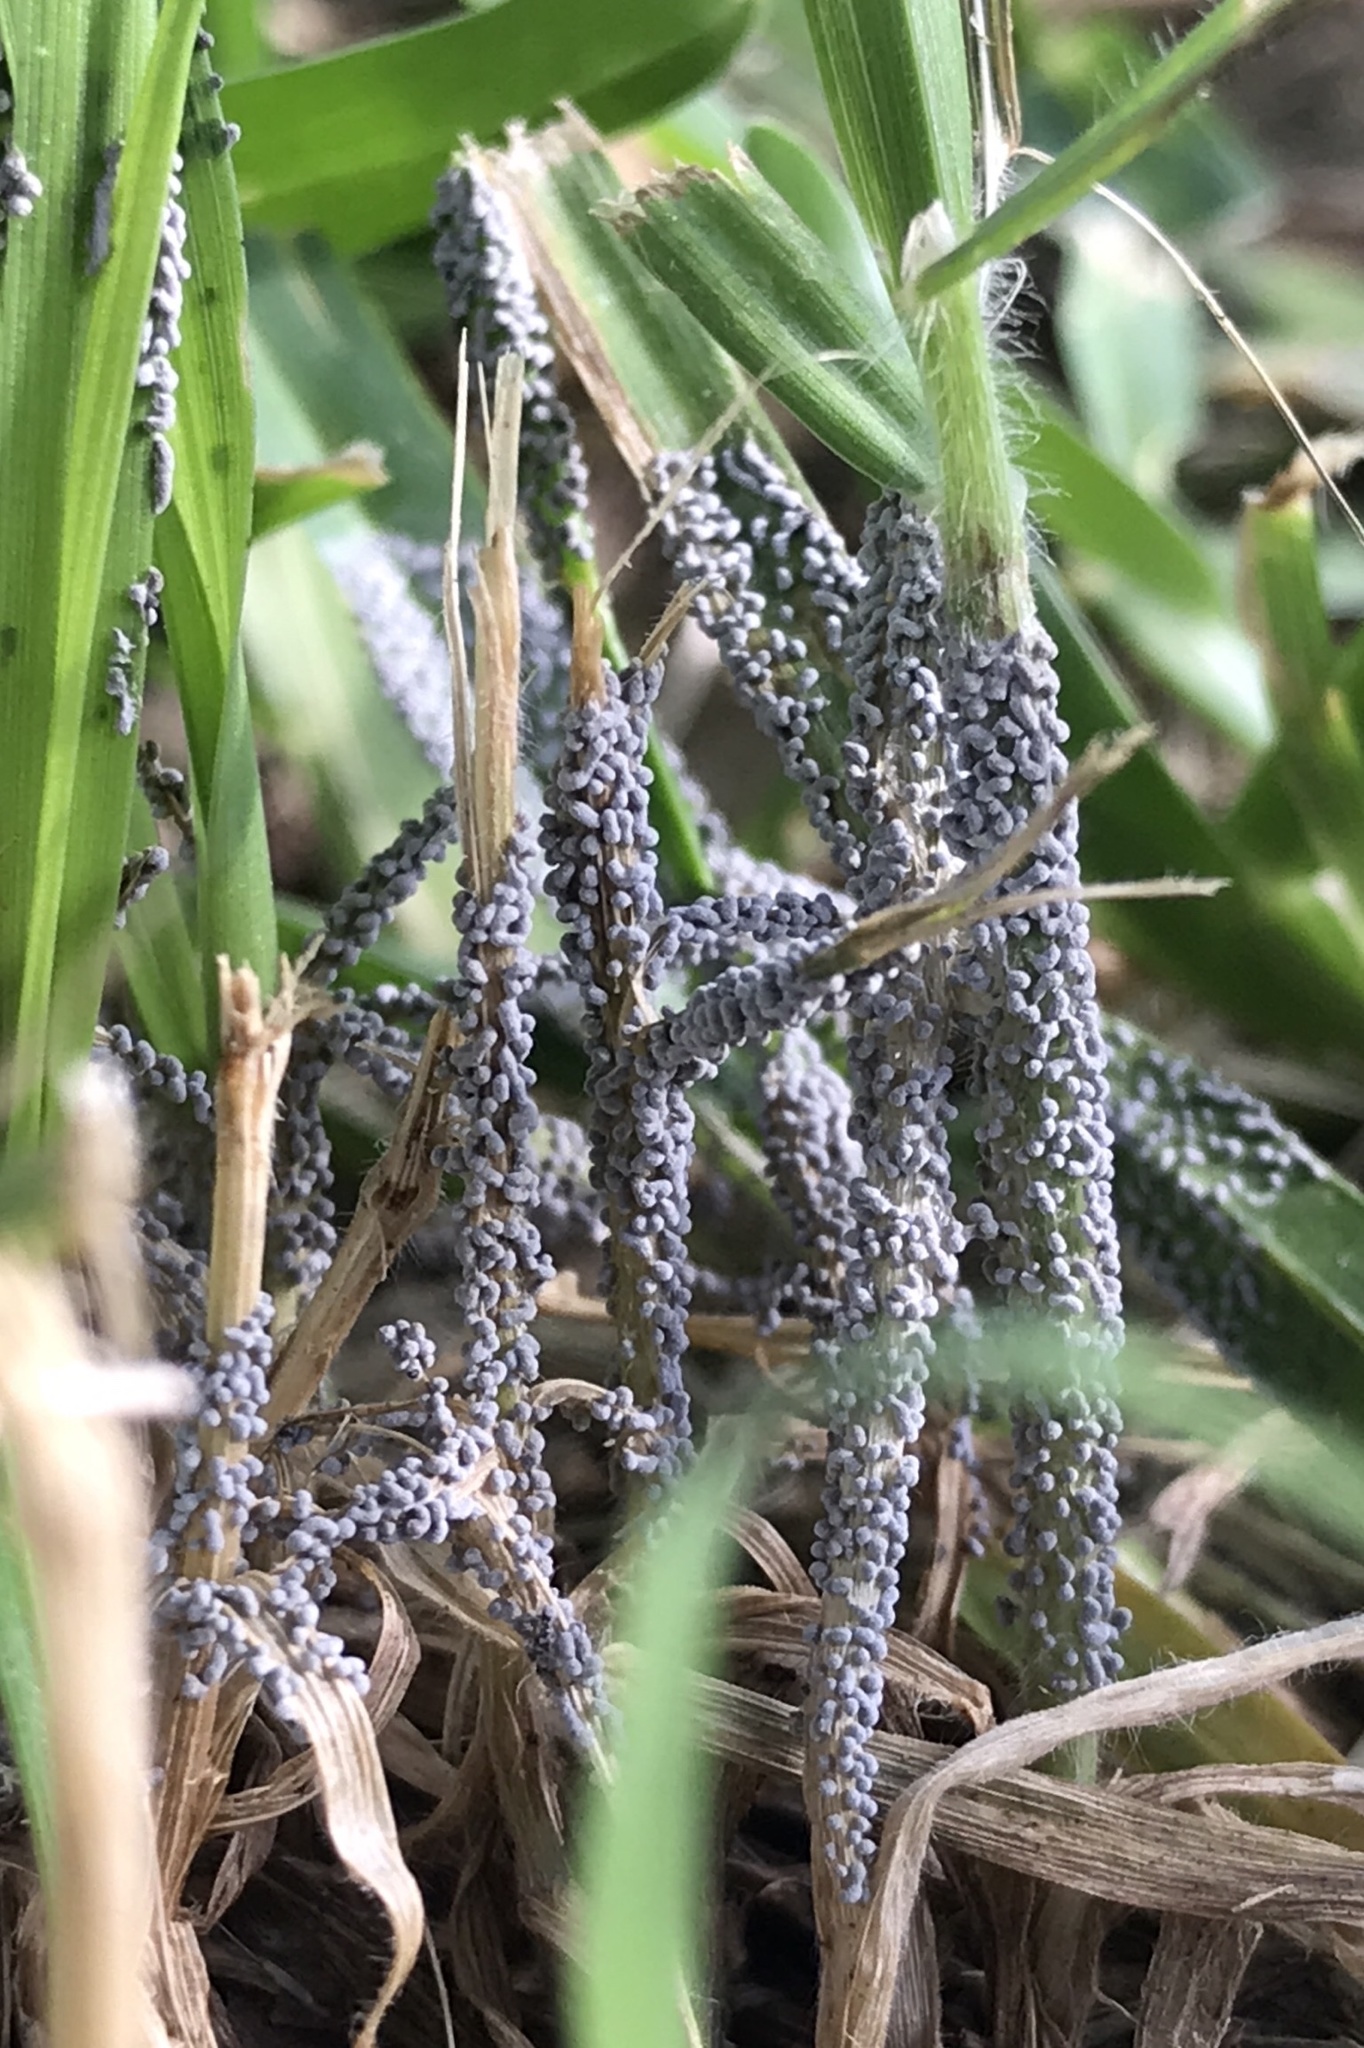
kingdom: Protozoa
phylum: Mycetozoa
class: Myxomycetes
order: Physarales
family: Physaraceae
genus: Physarum
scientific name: Physarum cinereum
